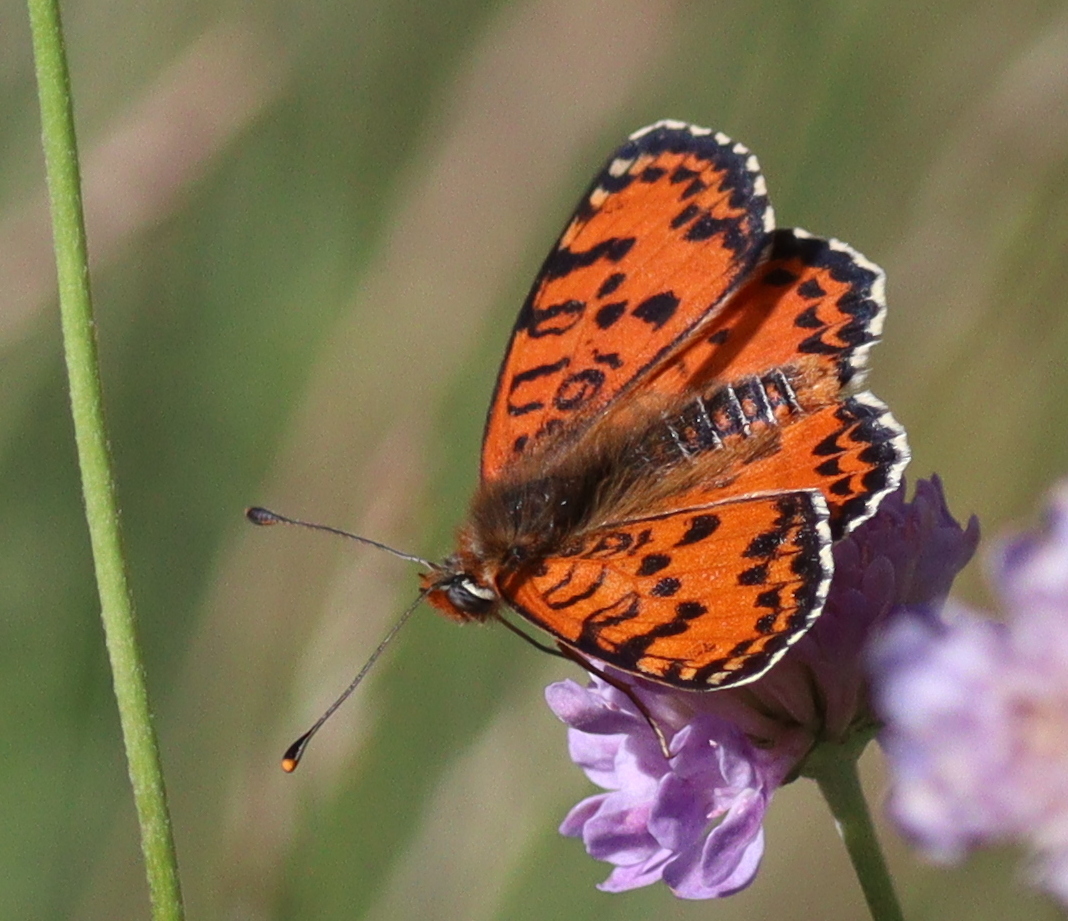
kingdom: Animalia
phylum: Arthropoda
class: Insecta
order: Lepidoptera
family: Nymphalidae
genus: Melitaea
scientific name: Melitaea didyma
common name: Spotted fritillary
